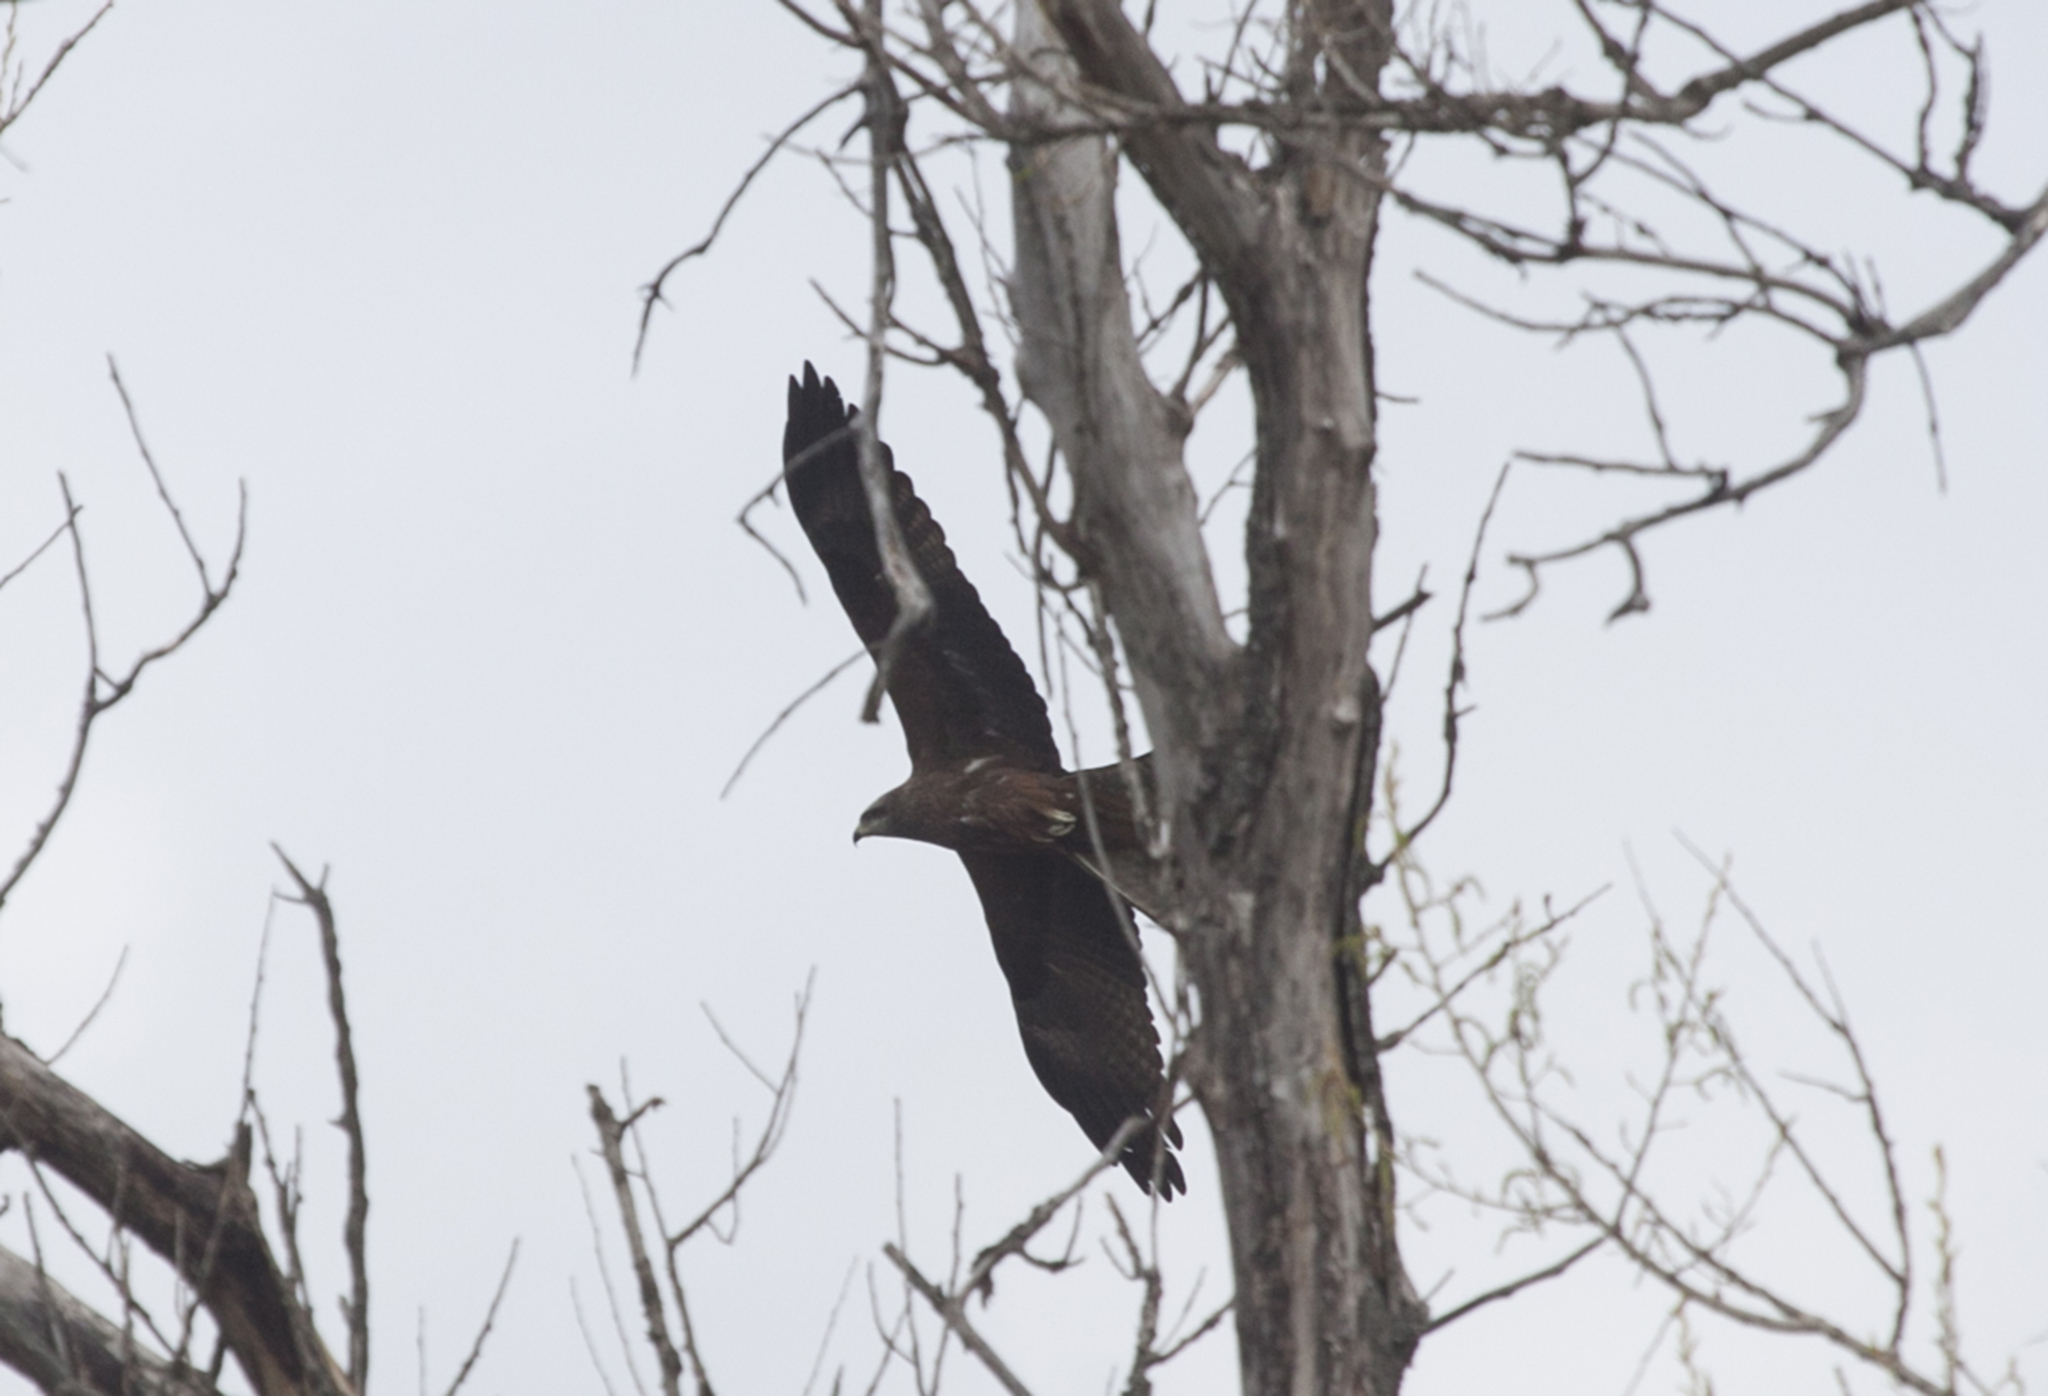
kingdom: Animalia
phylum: Chordata
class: Aves
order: Accipitriformes
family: Accipitridae
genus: Milvus
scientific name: Milvus migrans
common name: Black kite
